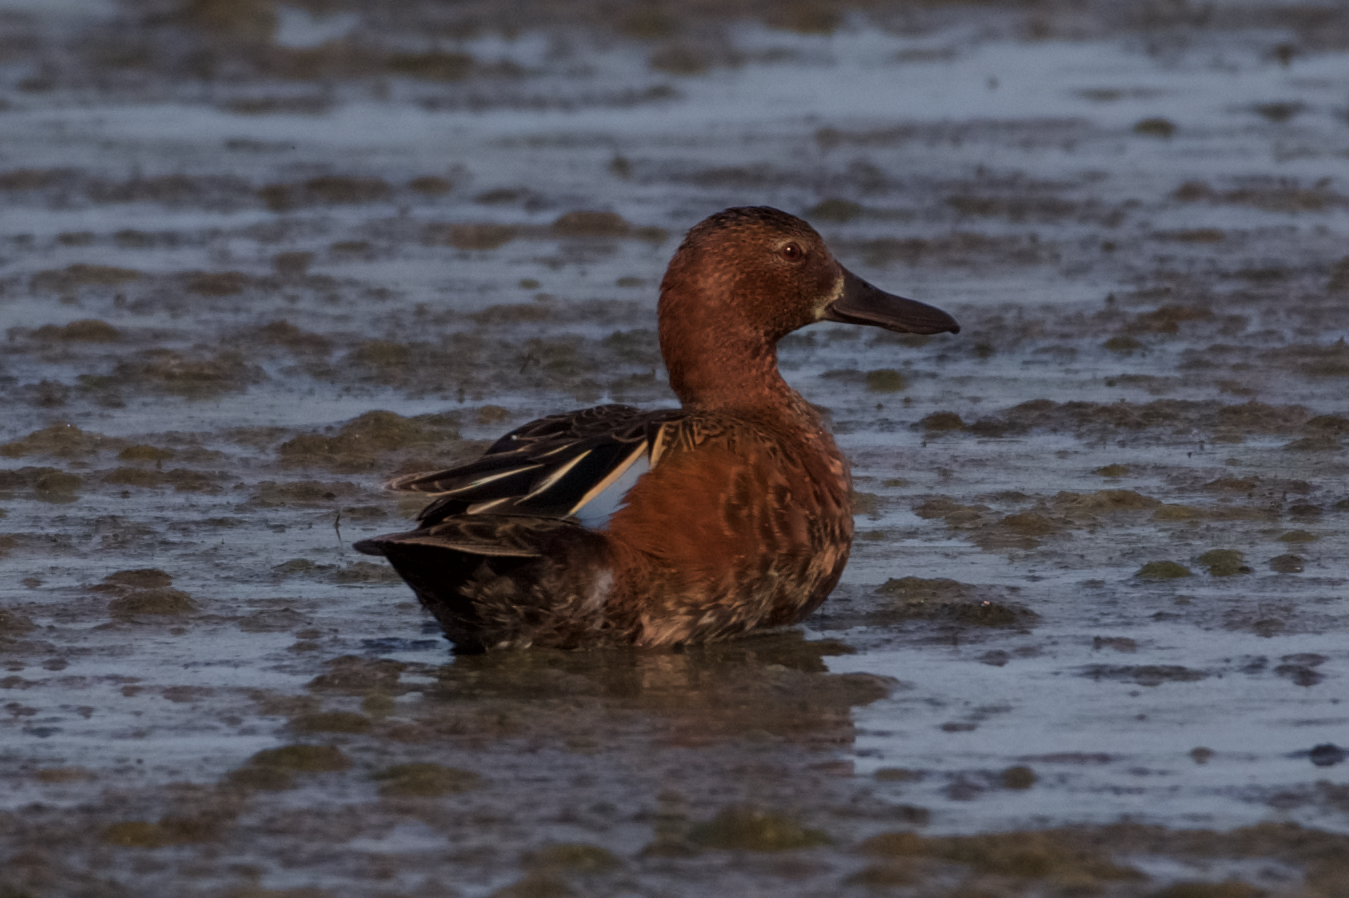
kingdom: Animalia
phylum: Chordata
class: Aves
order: Anseriformes
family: Anatidae
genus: Spatula
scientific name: Spatula cyanoptera
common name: Cinnamon teal
